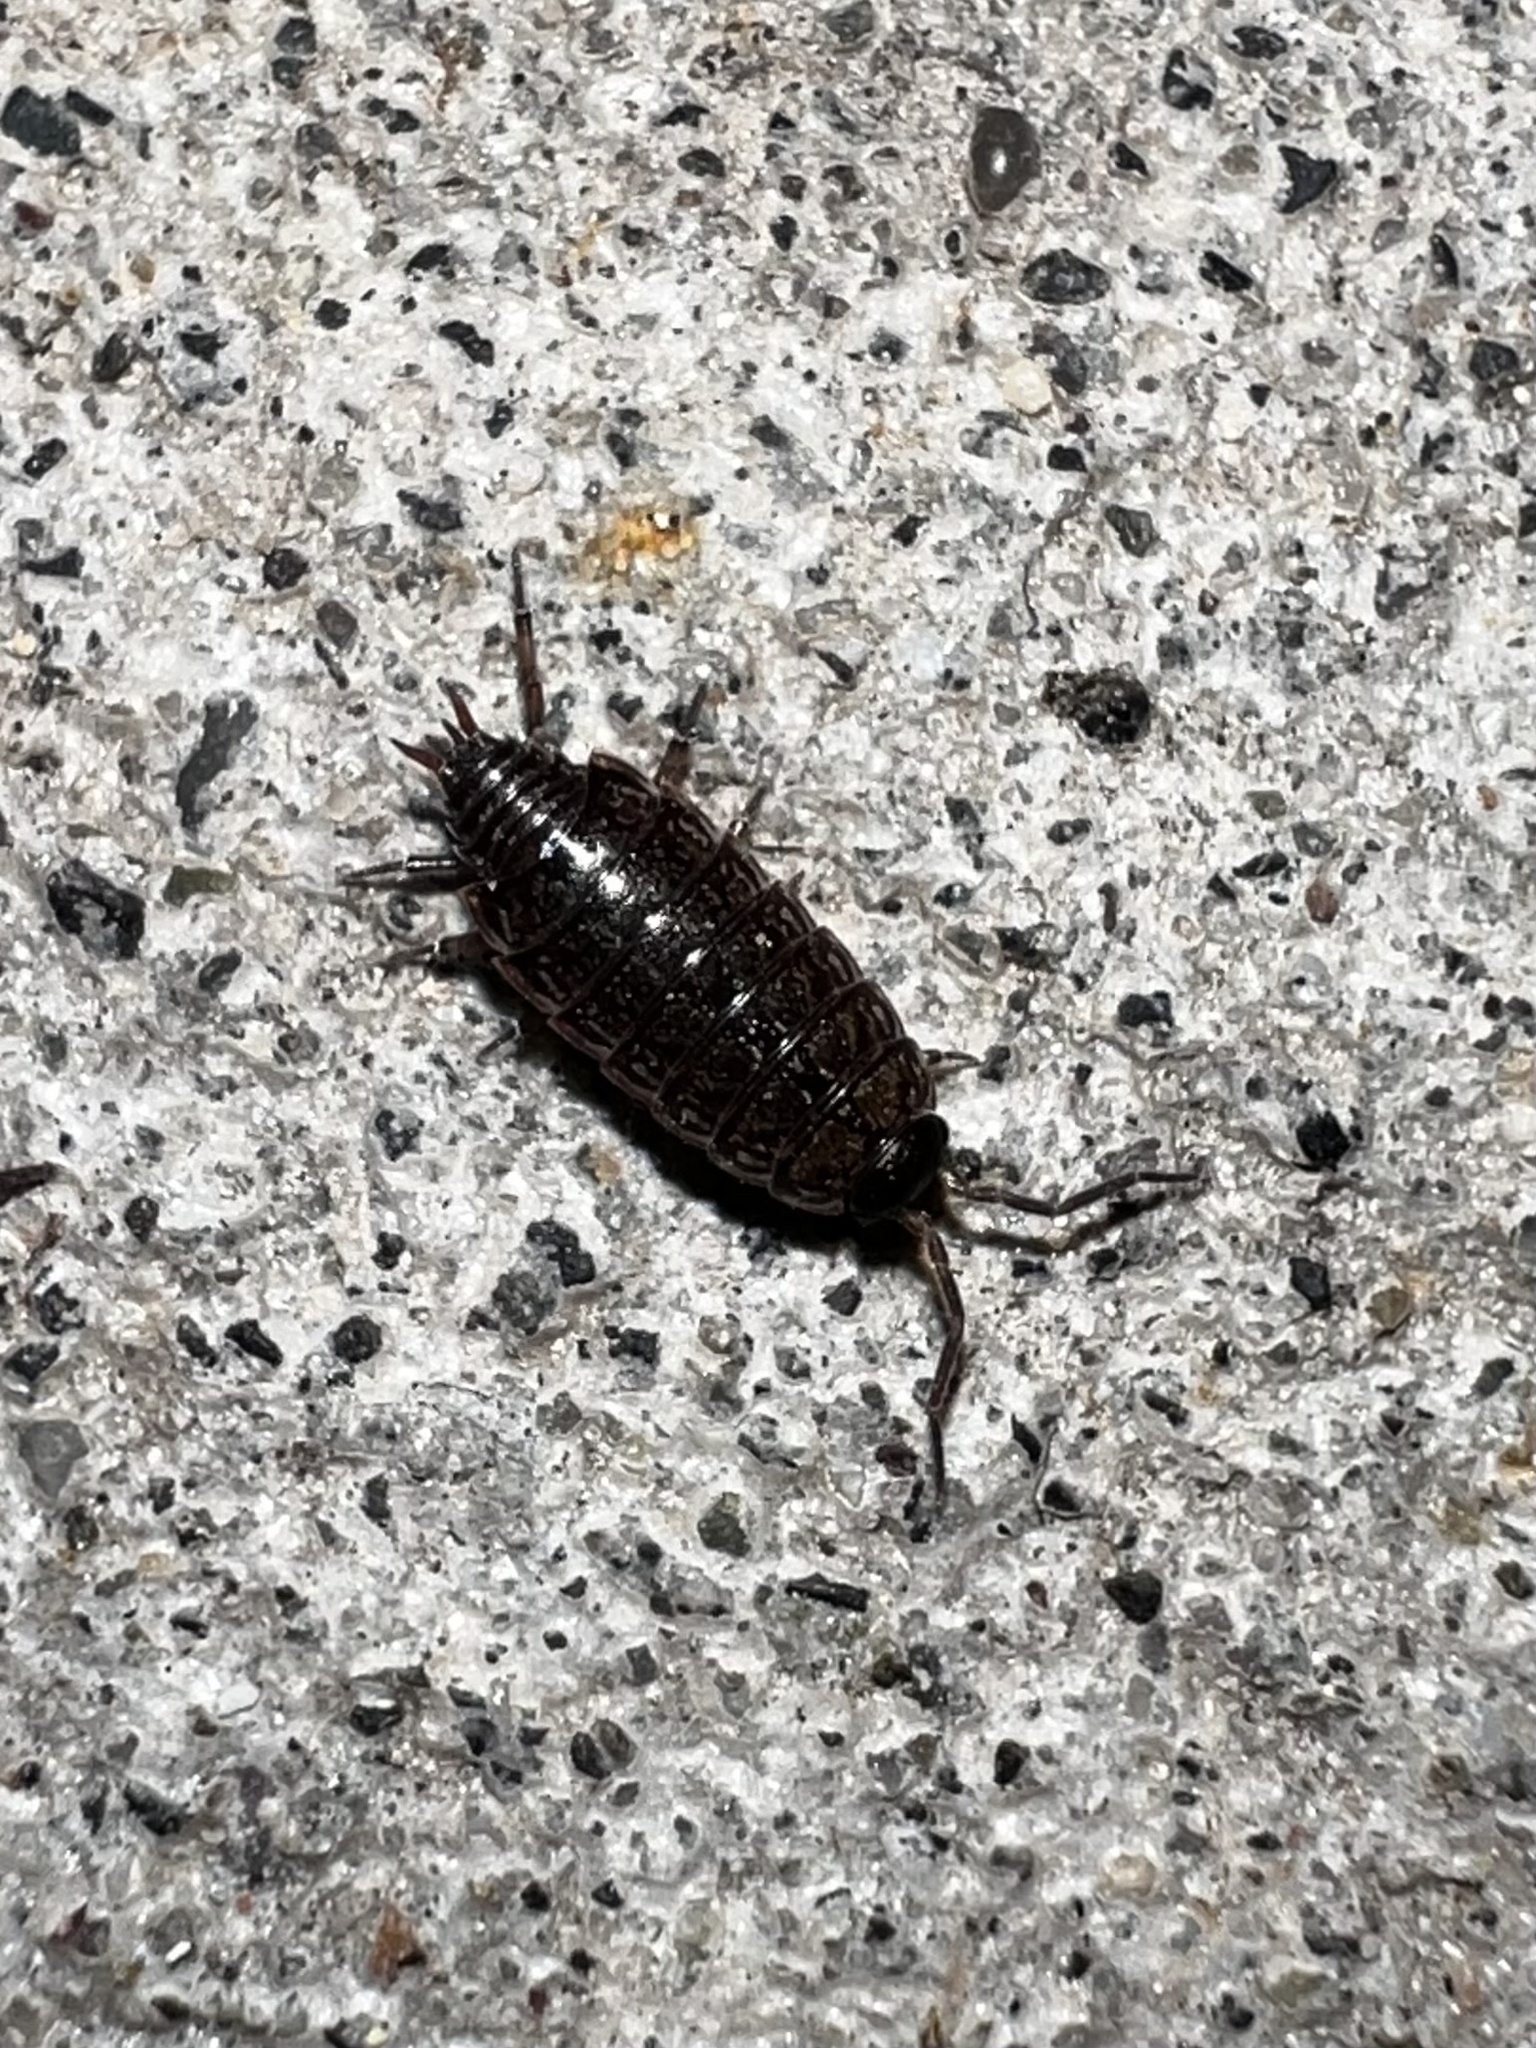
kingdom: Animalia
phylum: Arthropoda
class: Malacostraca
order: Isopoda
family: Philosciidae
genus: Philoscia
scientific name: Philoscia muscorum
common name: Common striped woodlouse
